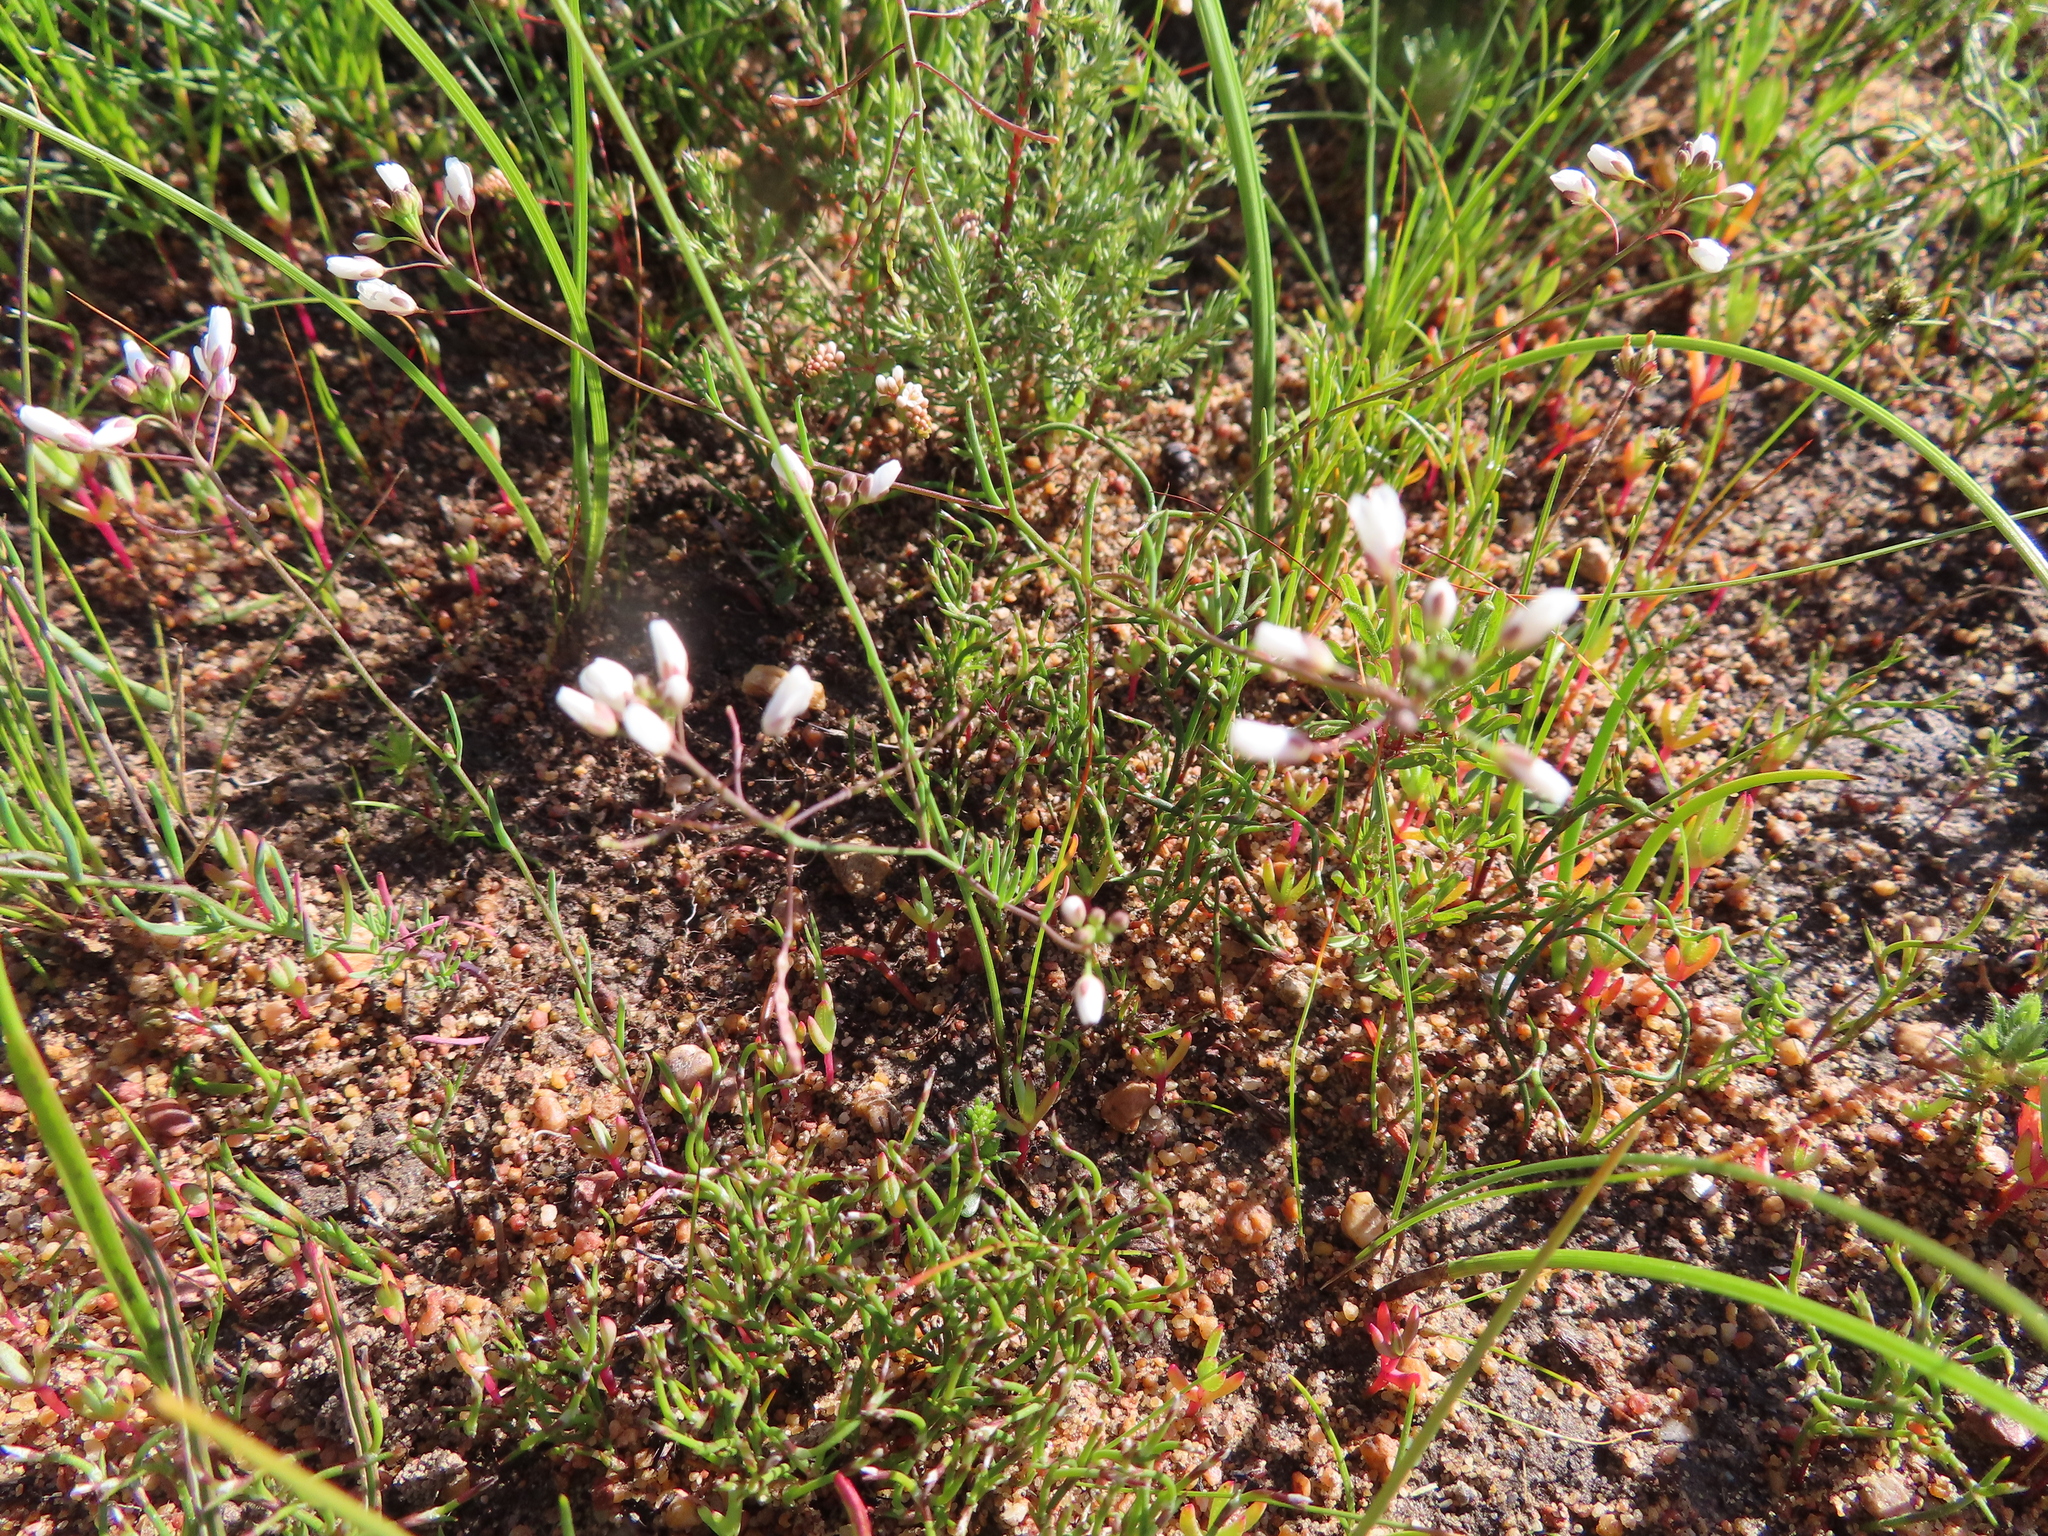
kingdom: Plantae
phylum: Tracheophyta
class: Magnoliopsida
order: Brassicales
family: Brassicaceae
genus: Heliophila
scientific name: Heliophila pusilla
